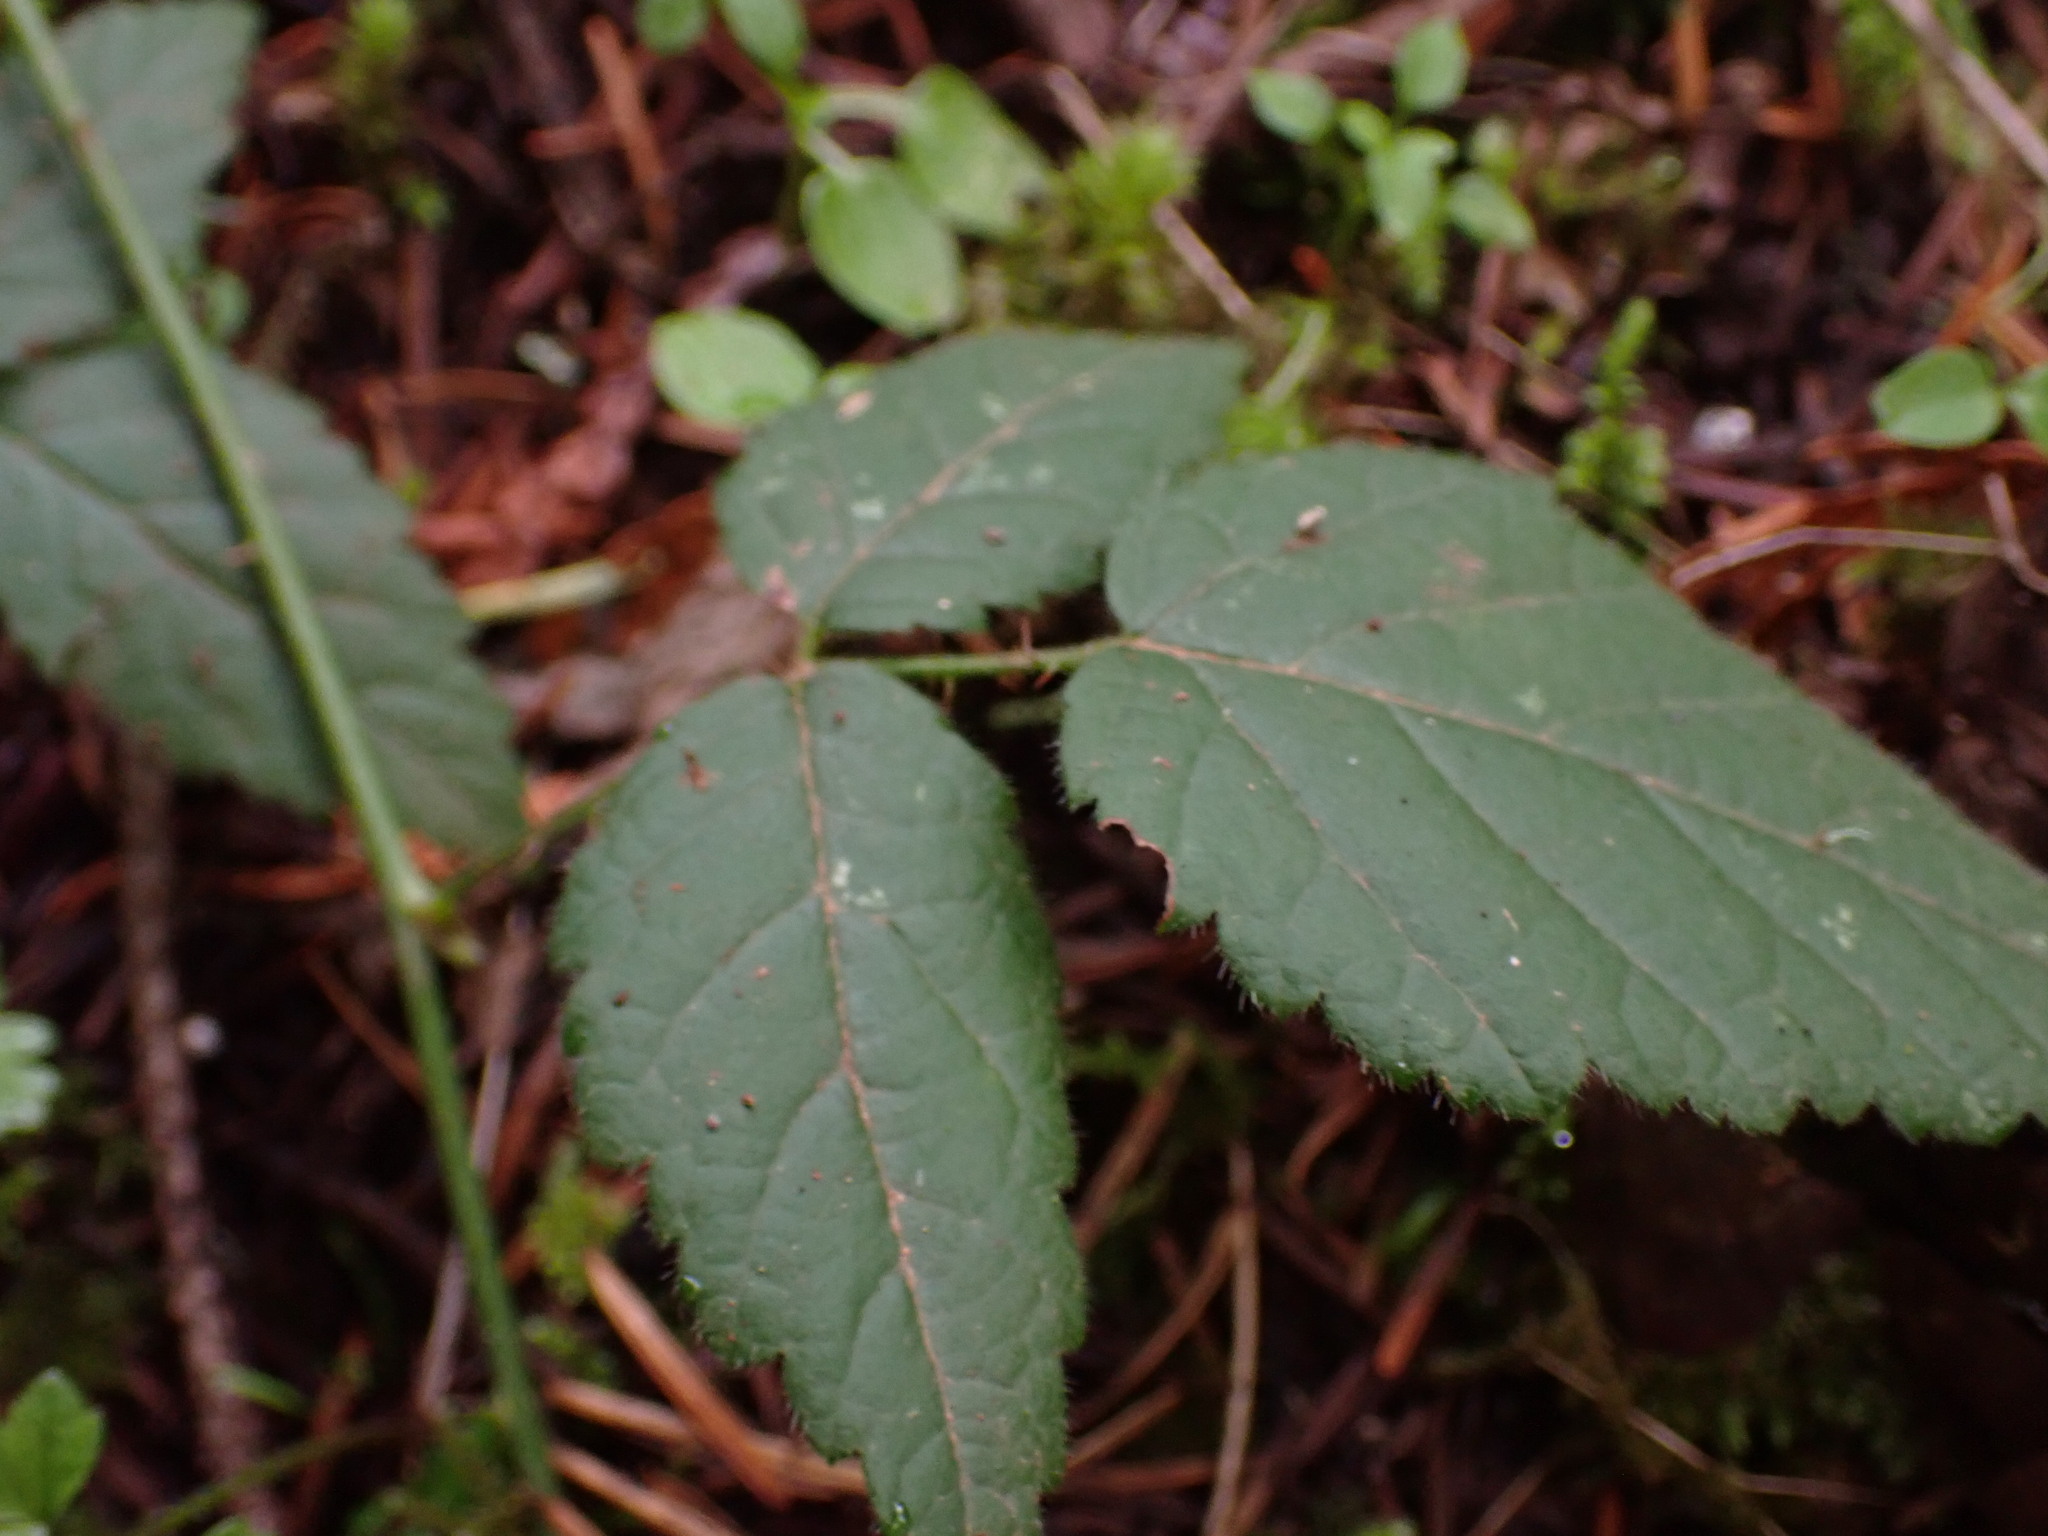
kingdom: Plantae
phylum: Tracheophyta
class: Magnoliopsida
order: Rosales
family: Rosaceae
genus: Rubus
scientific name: Rubus ursinus
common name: Pacific blackberry
